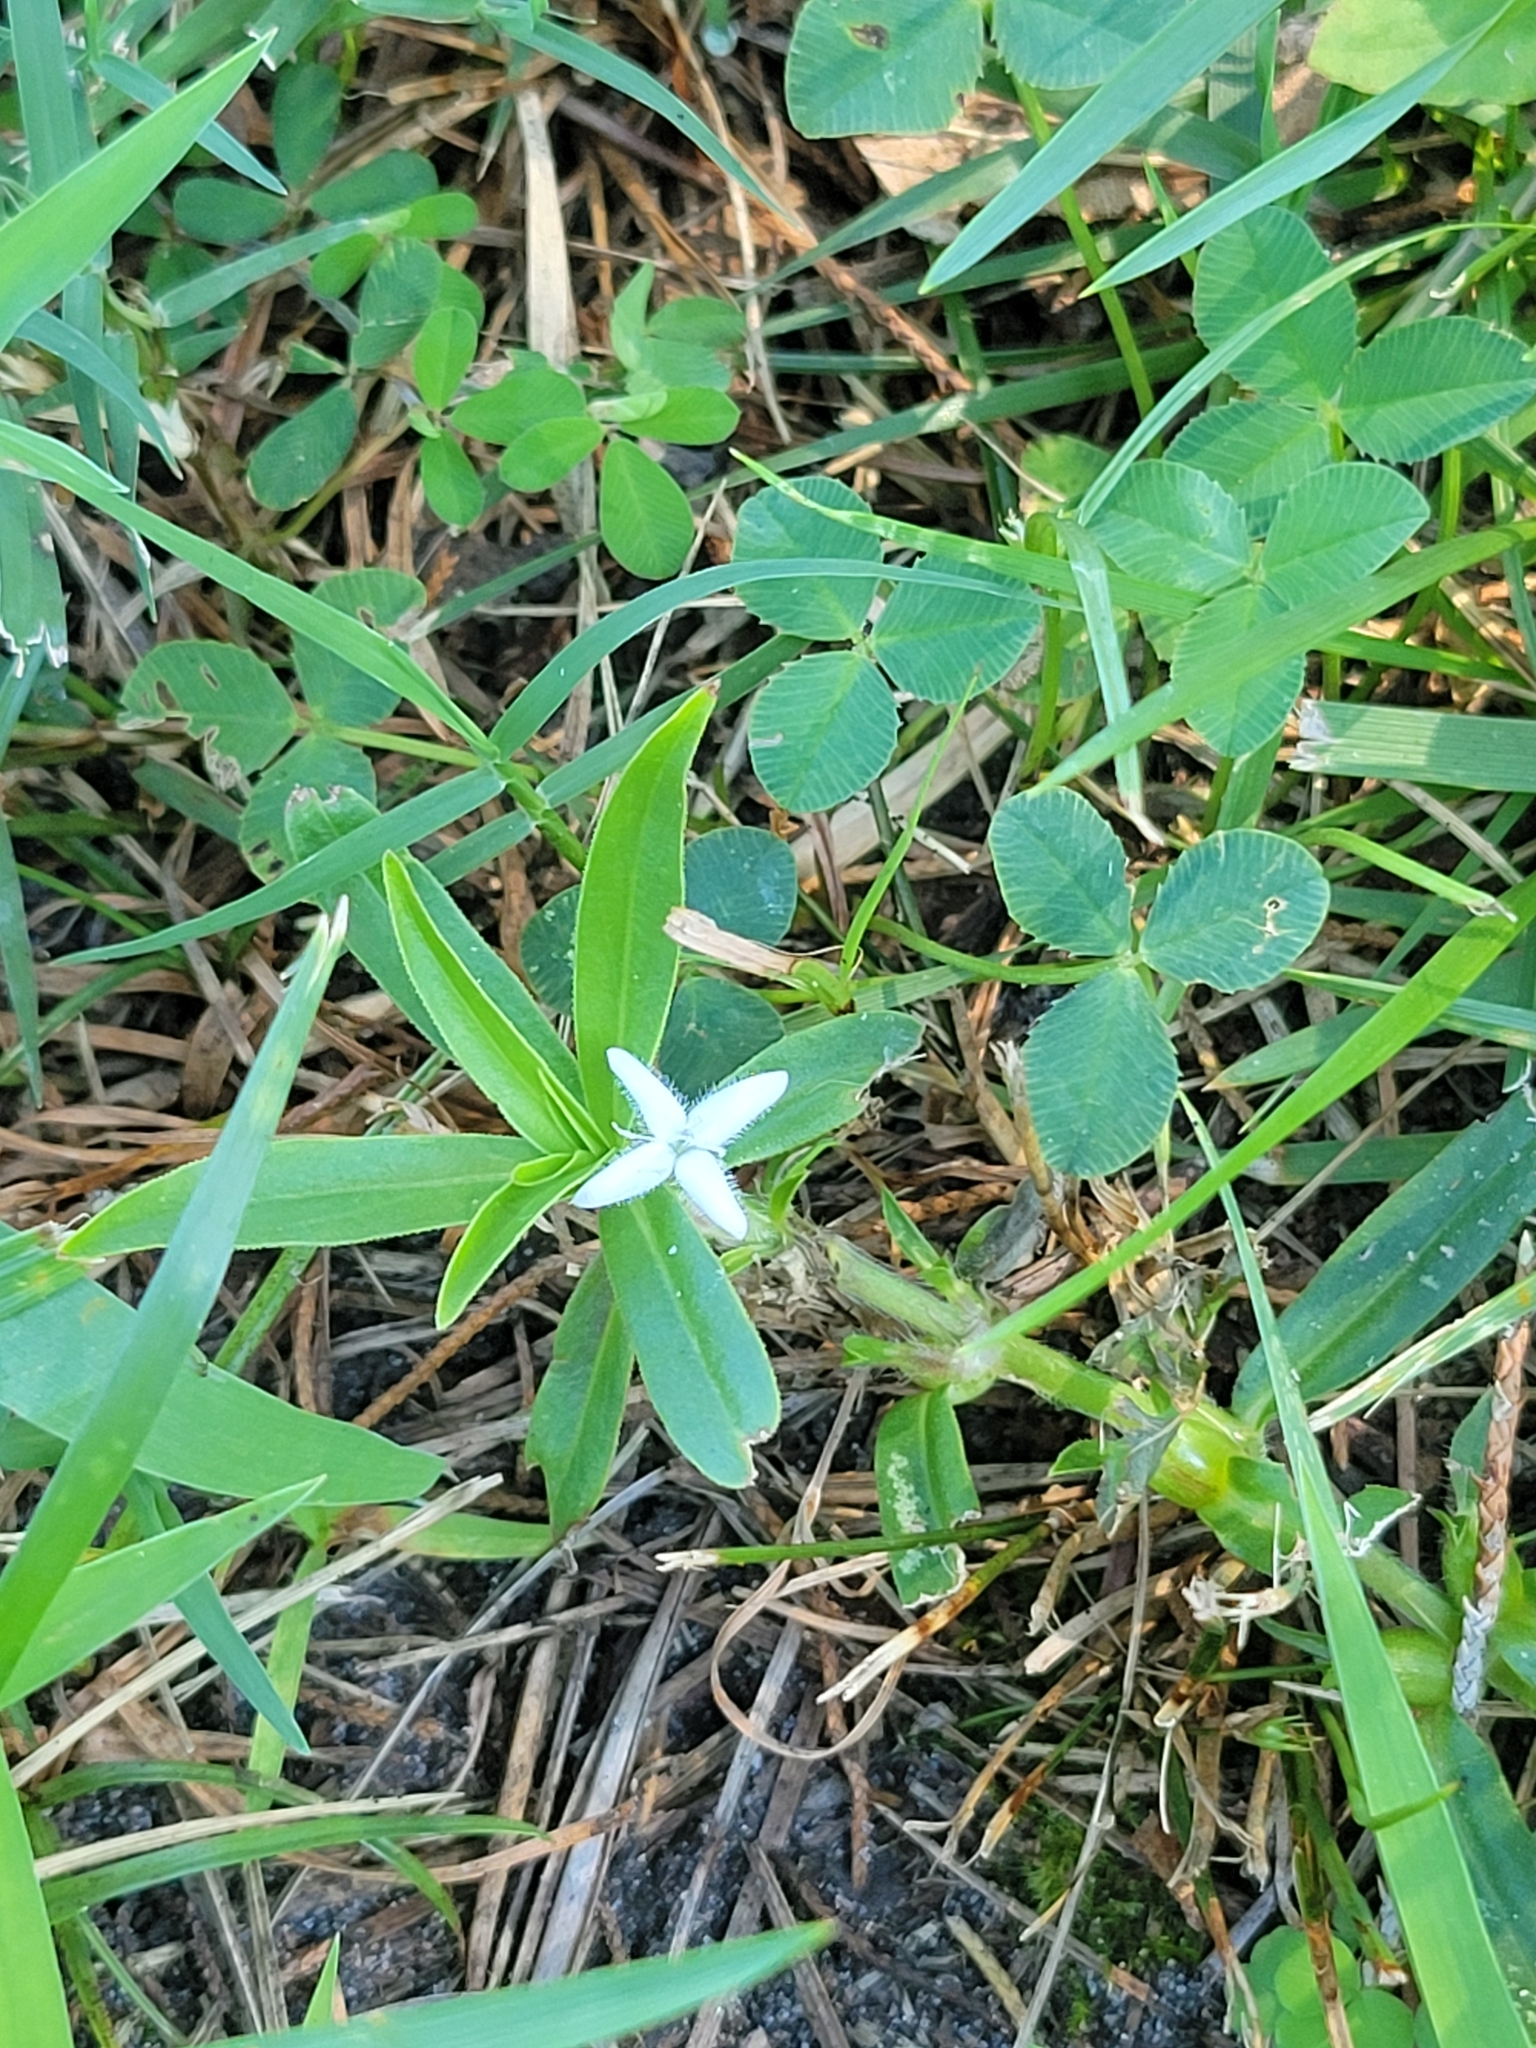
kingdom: Plantae
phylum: Tracheophyta
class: Magnoliopsida
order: Gentianales
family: Rubiaceae
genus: Diodia
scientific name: Diodia virginiana
